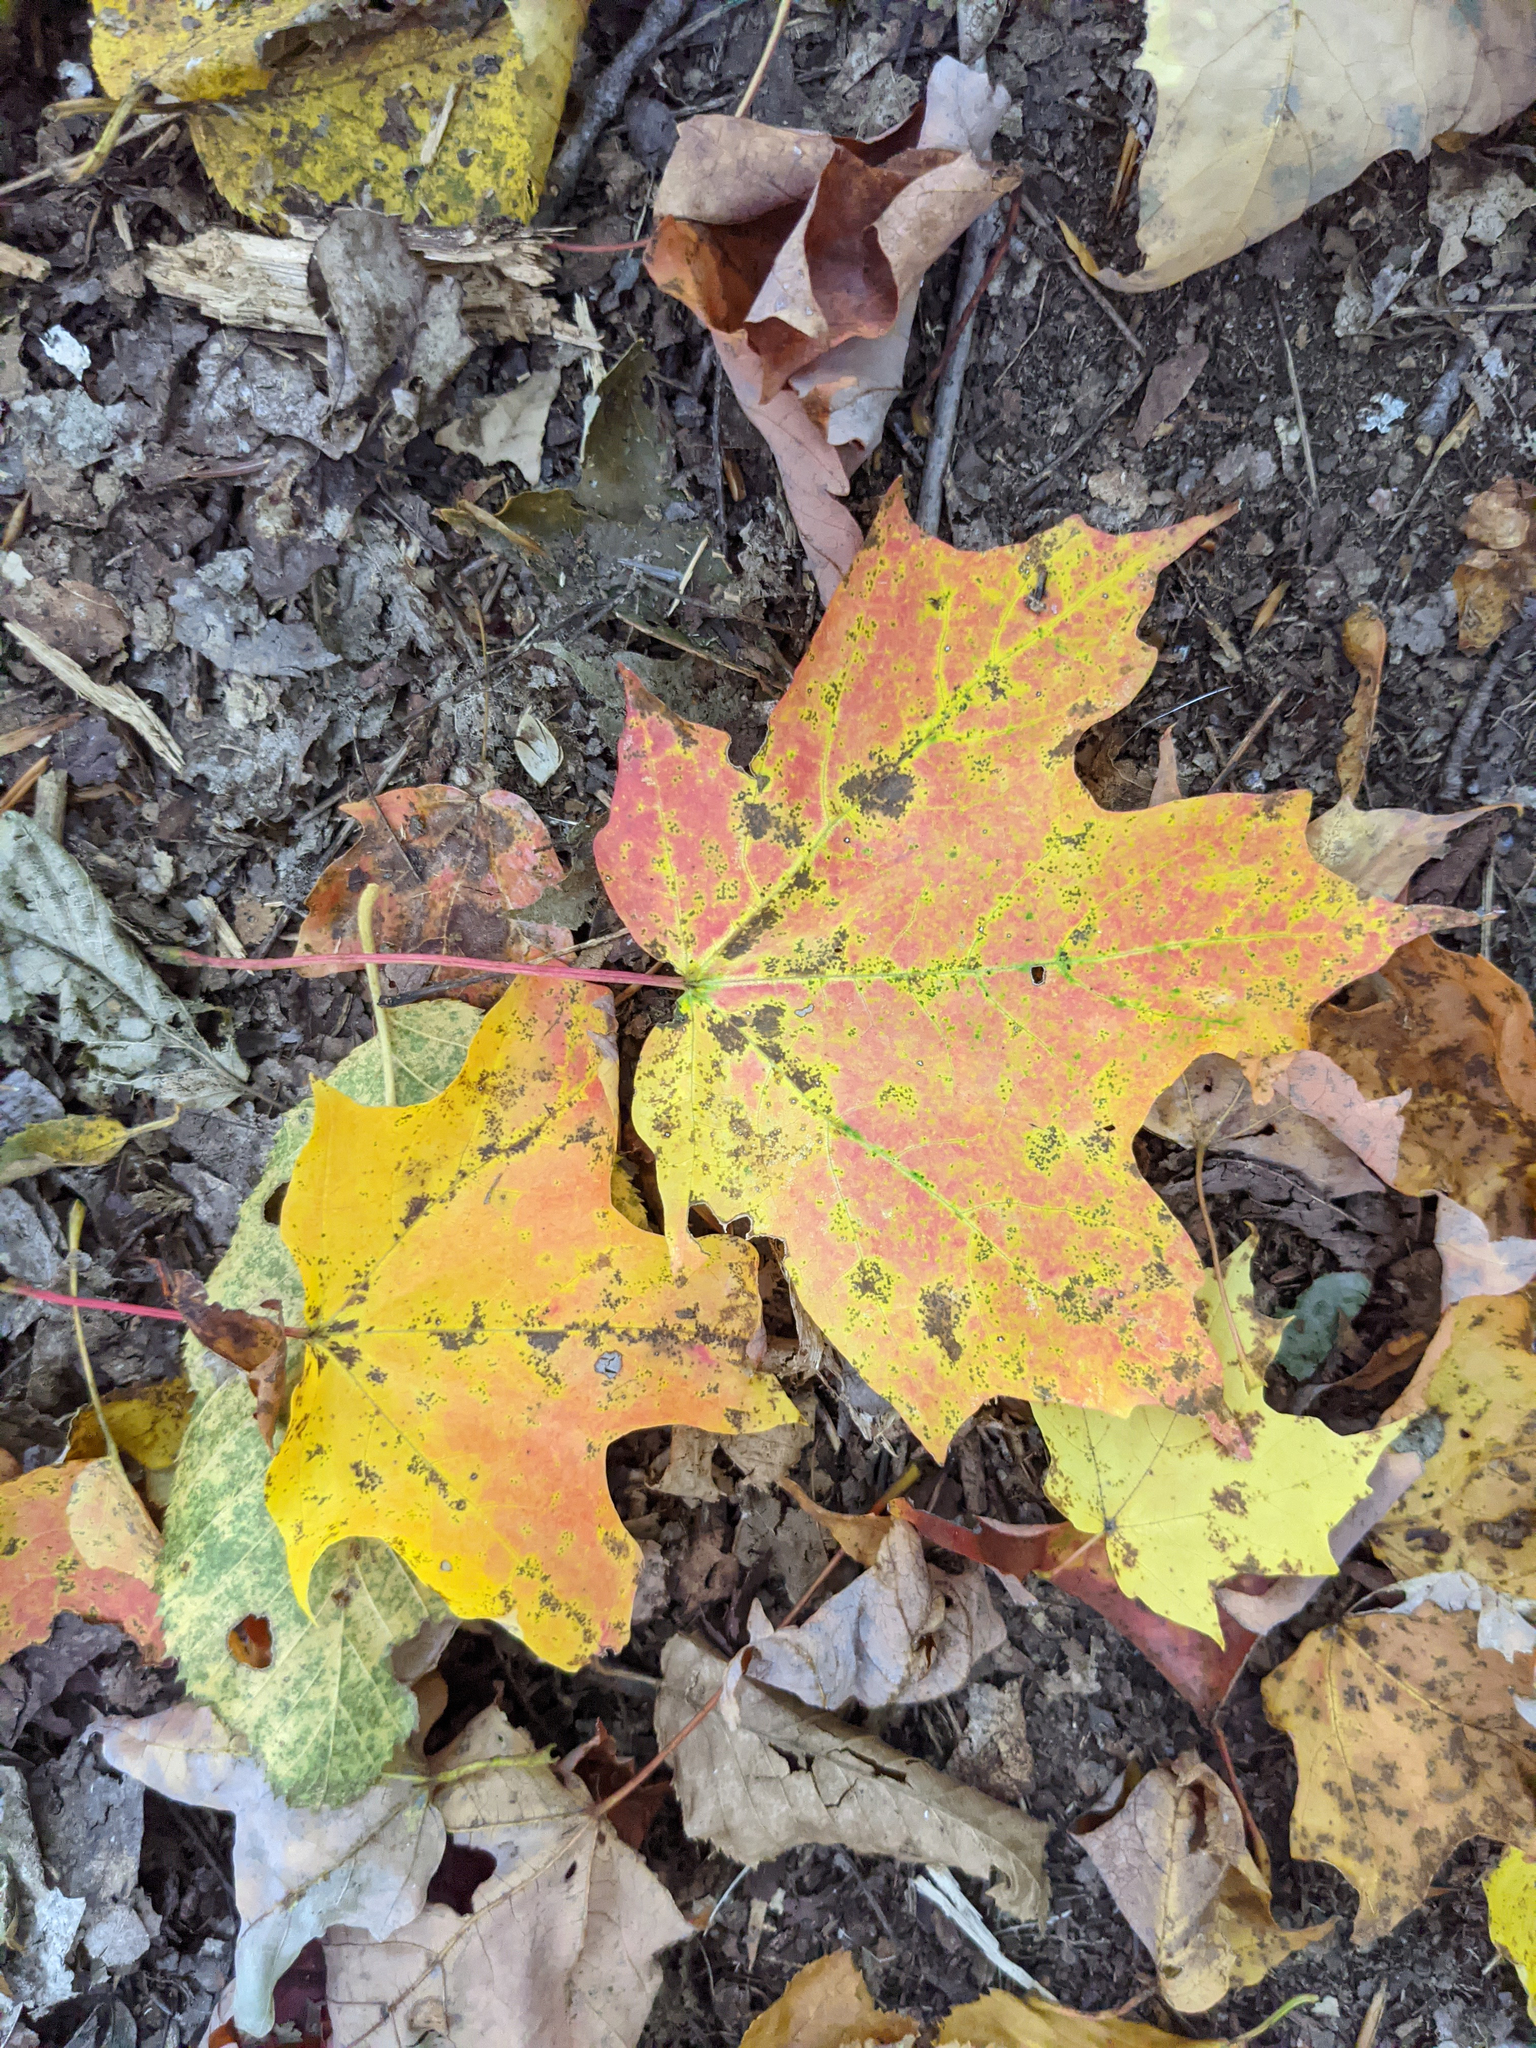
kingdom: Plantae
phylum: Tracheophyta
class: Magnoliopsida
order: Sapindales
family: Sapindaceae
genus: Acer
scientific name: Acer saccharum
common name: Sugar maple
